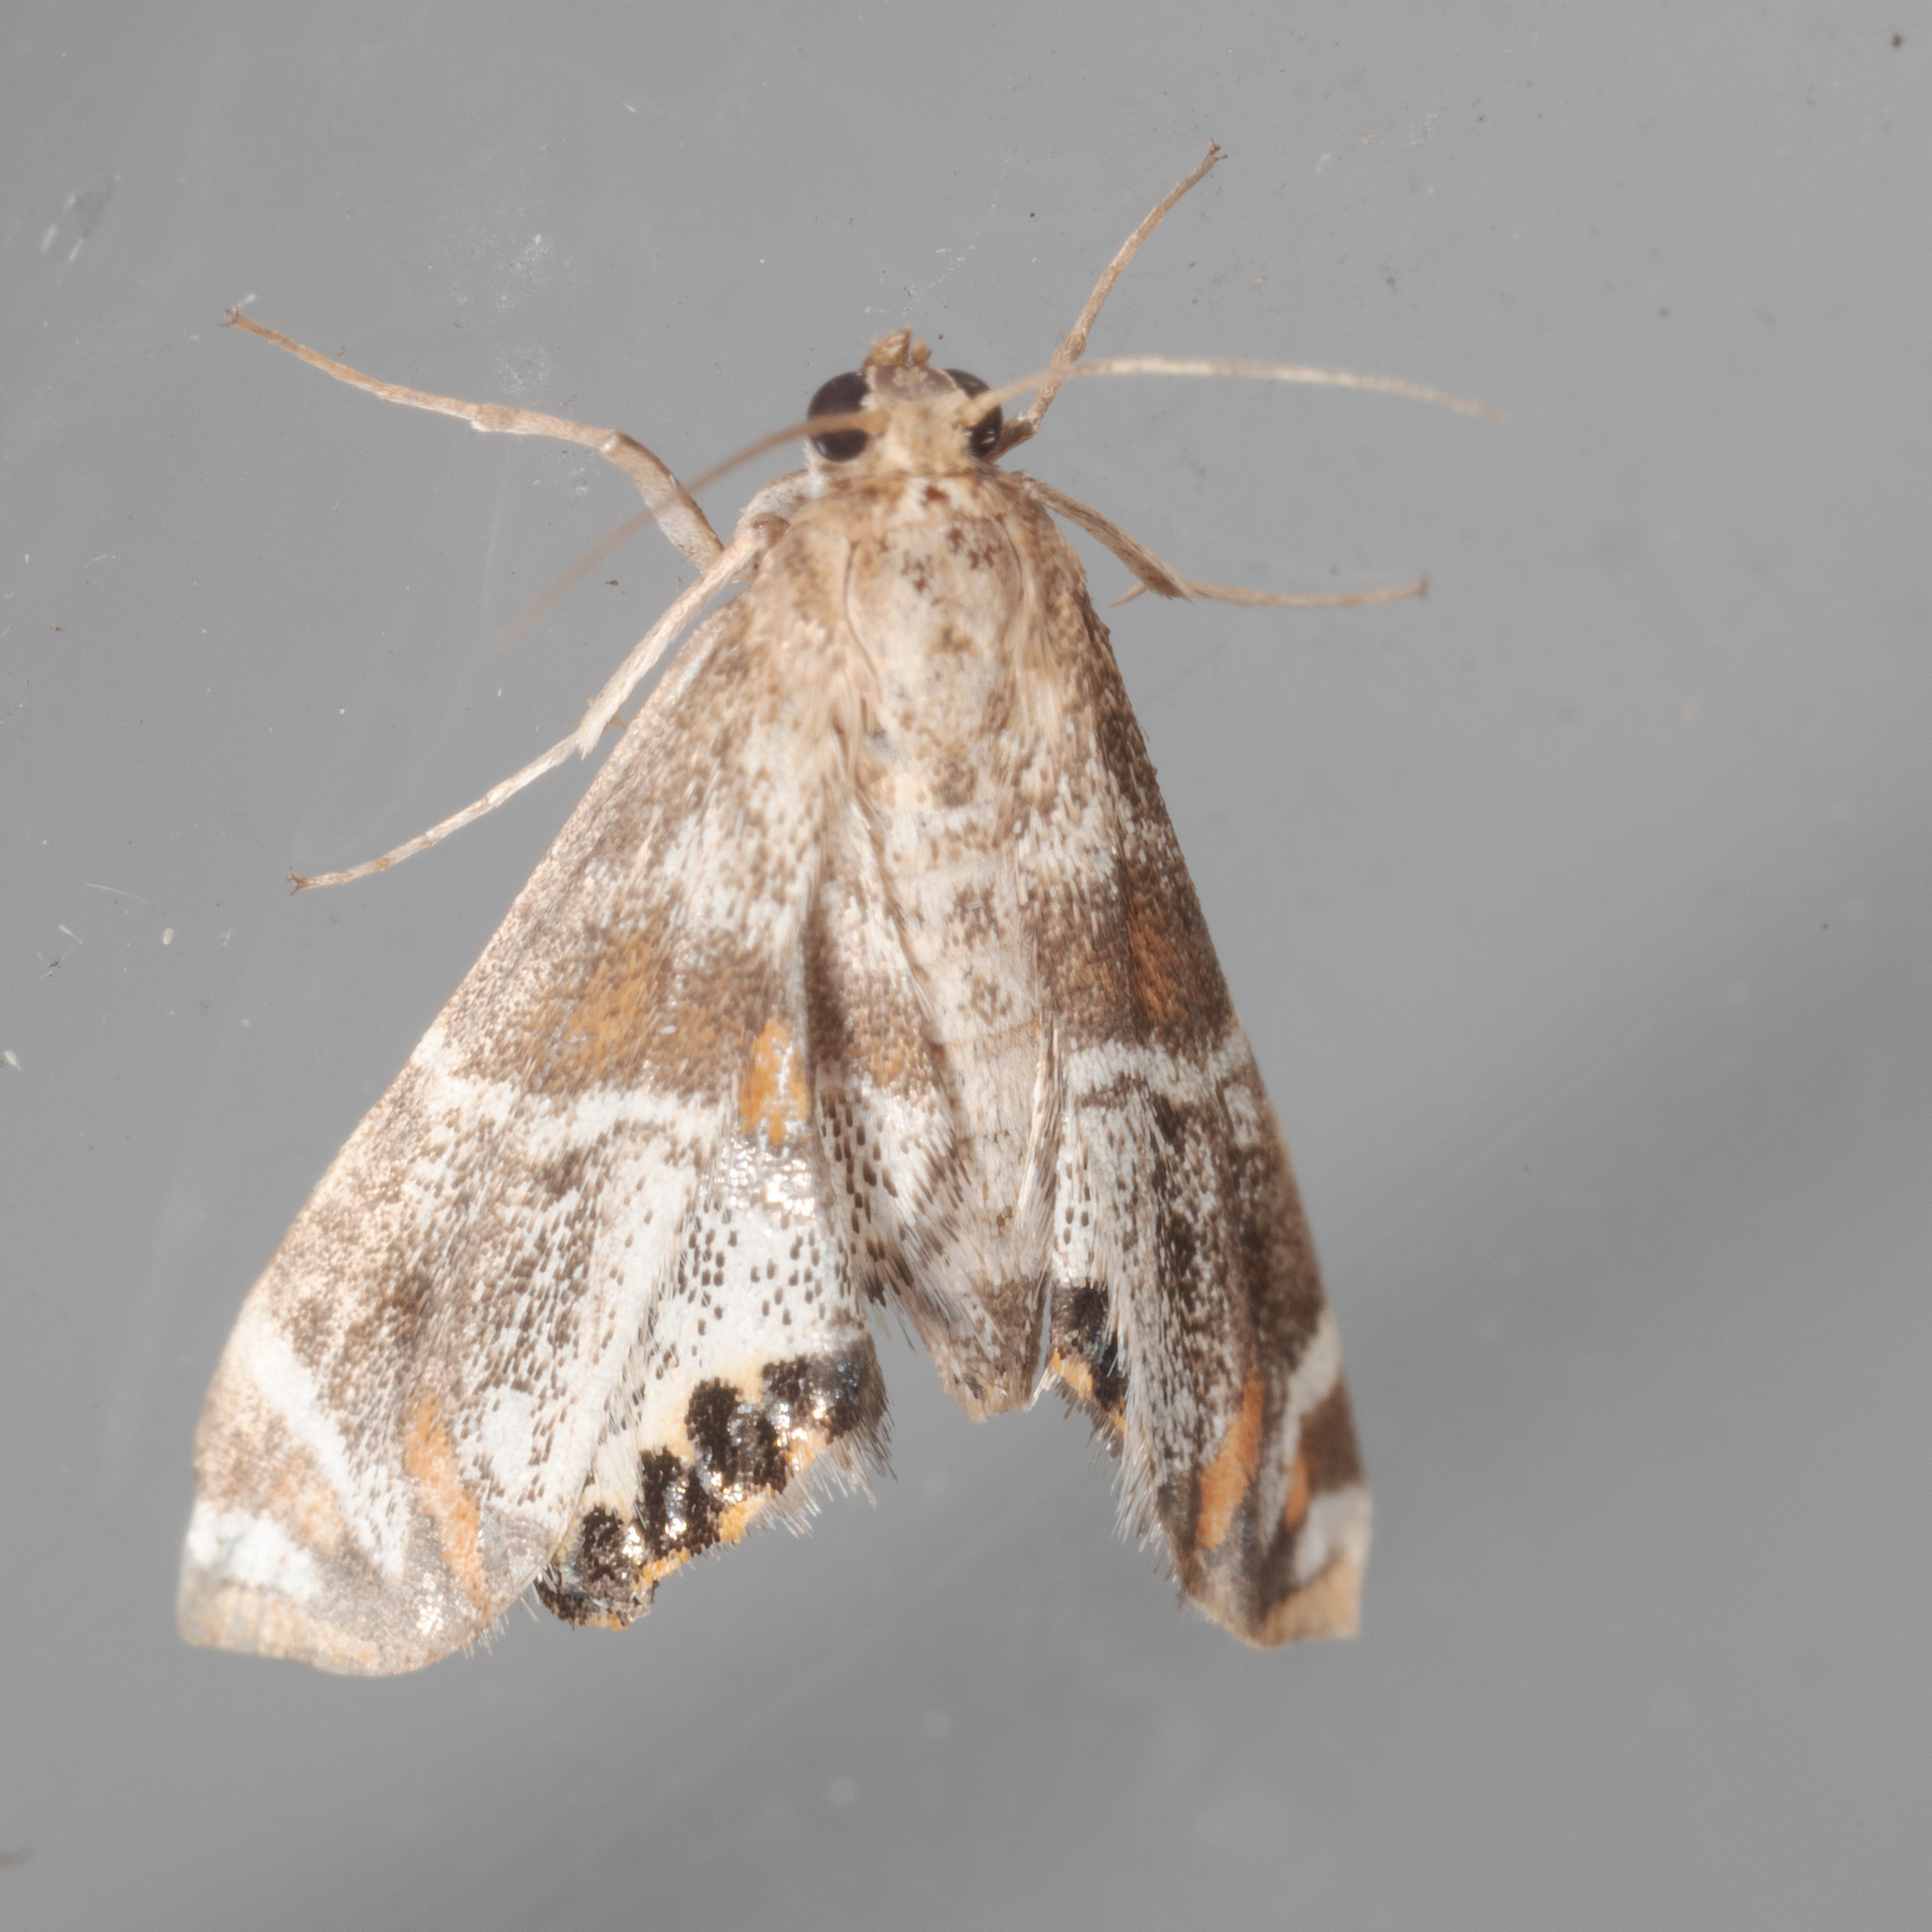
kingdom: Animalia
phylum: Arthropoda
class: Insecta
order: Lepidoptera
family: Crambidae
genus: Petrophila
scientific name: Petrophila jaliscalis
